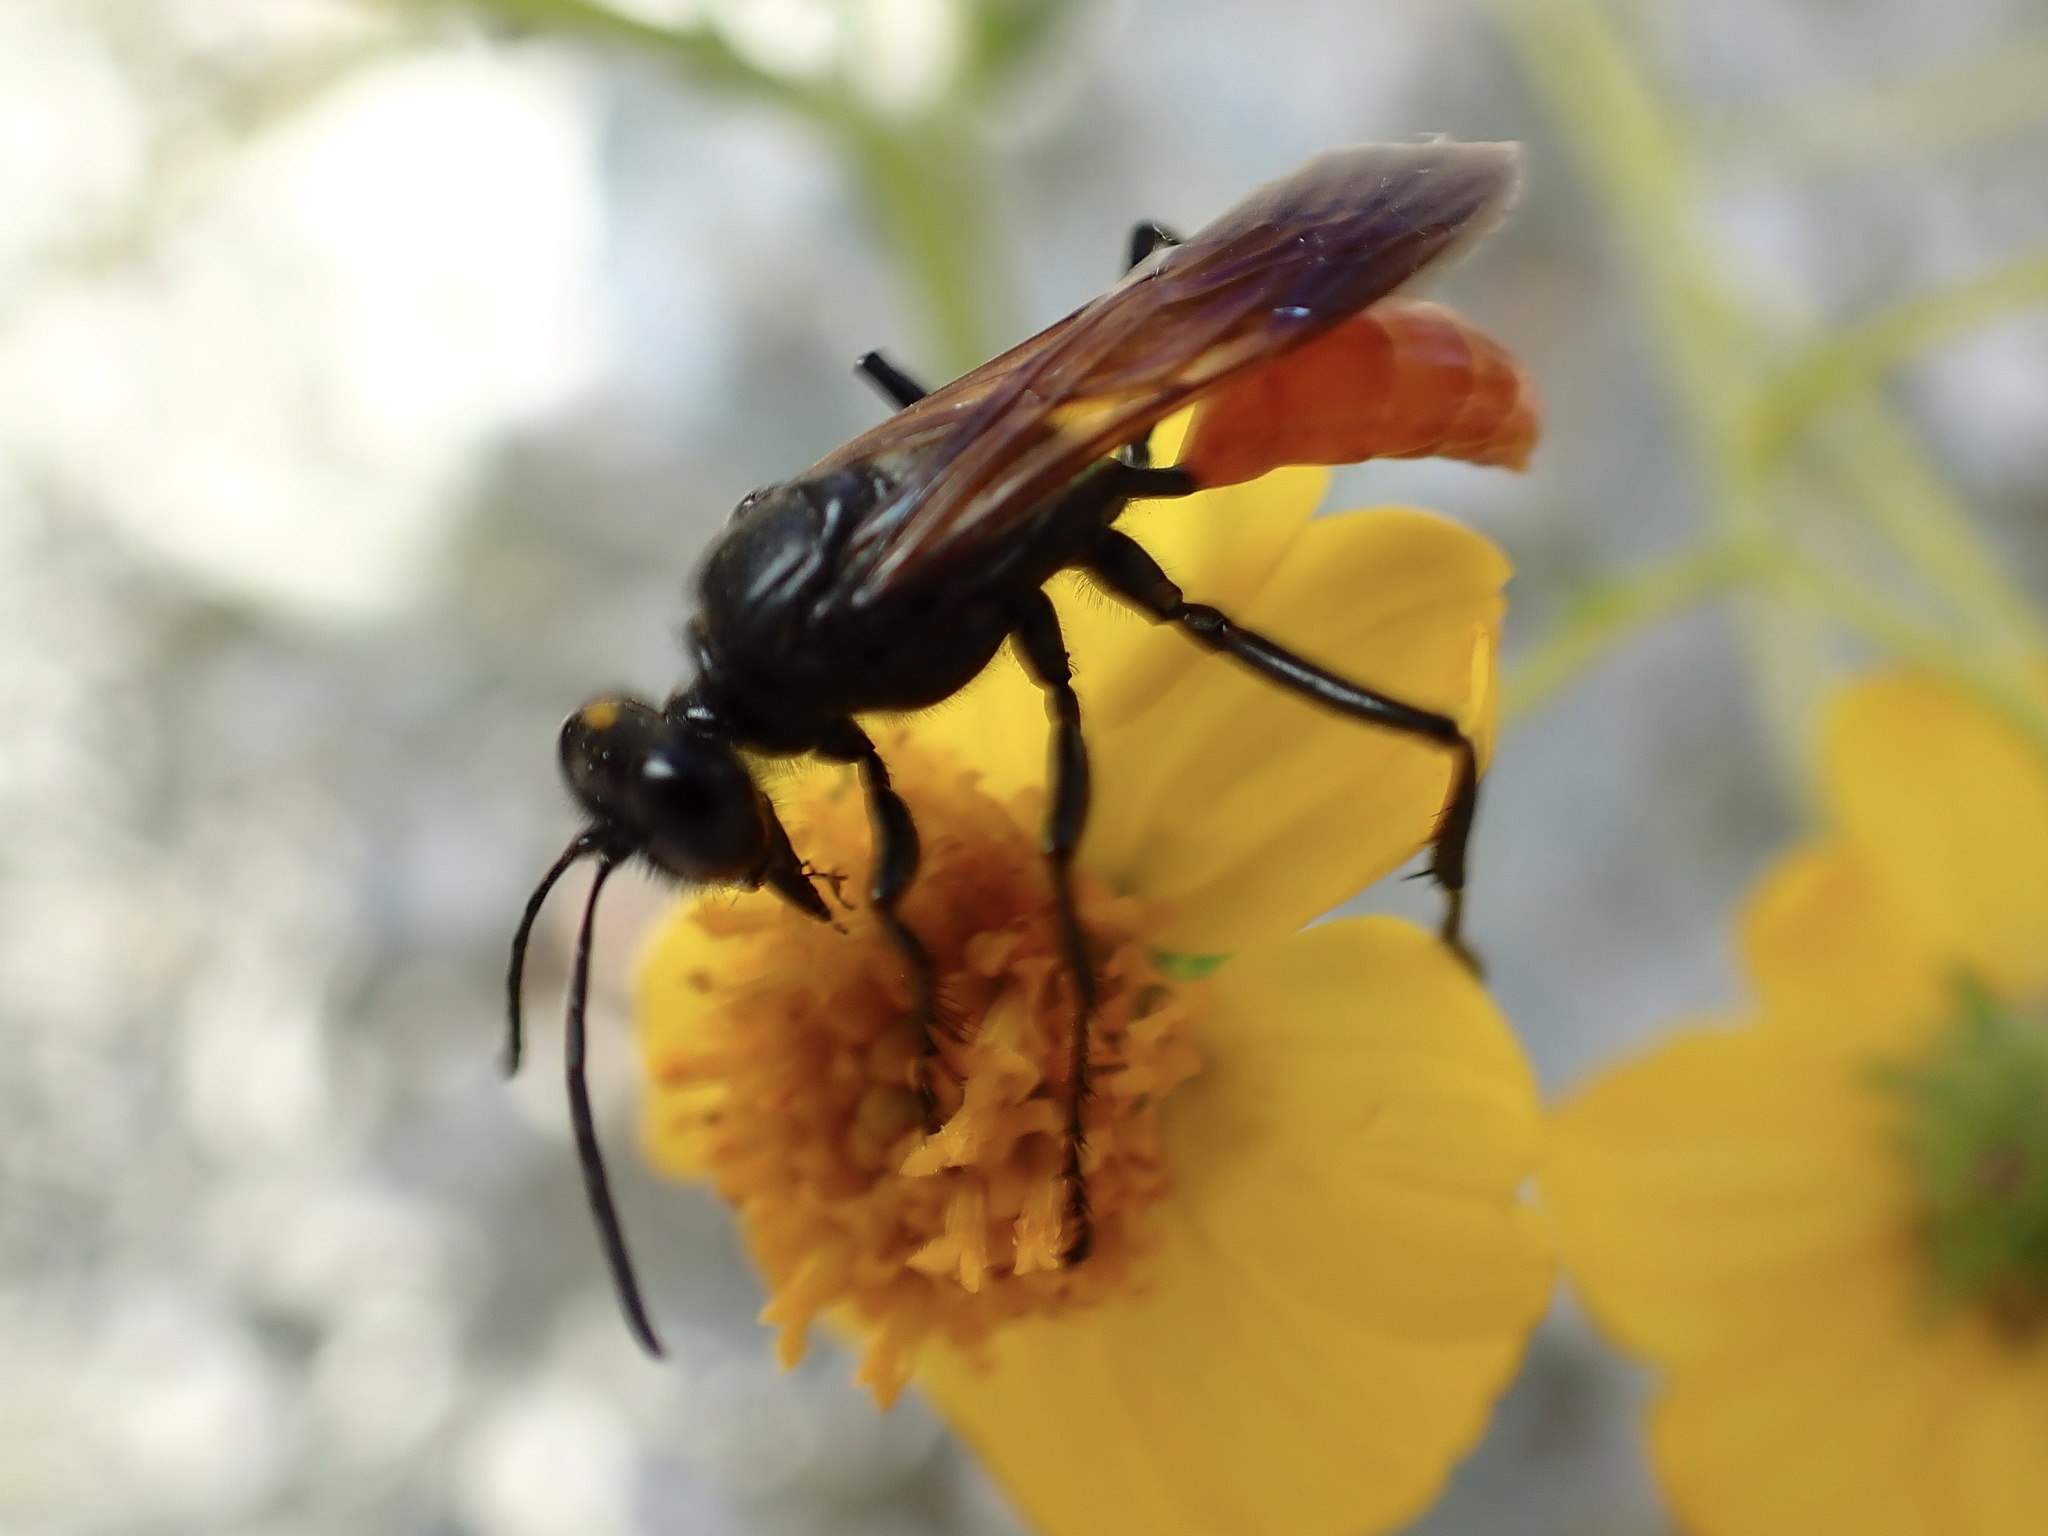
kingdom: Animalia
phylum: Arthropoda
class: Insecta
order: Hymenoptera
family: Sphecidae
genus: Sphex
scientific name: Sphex lucae
